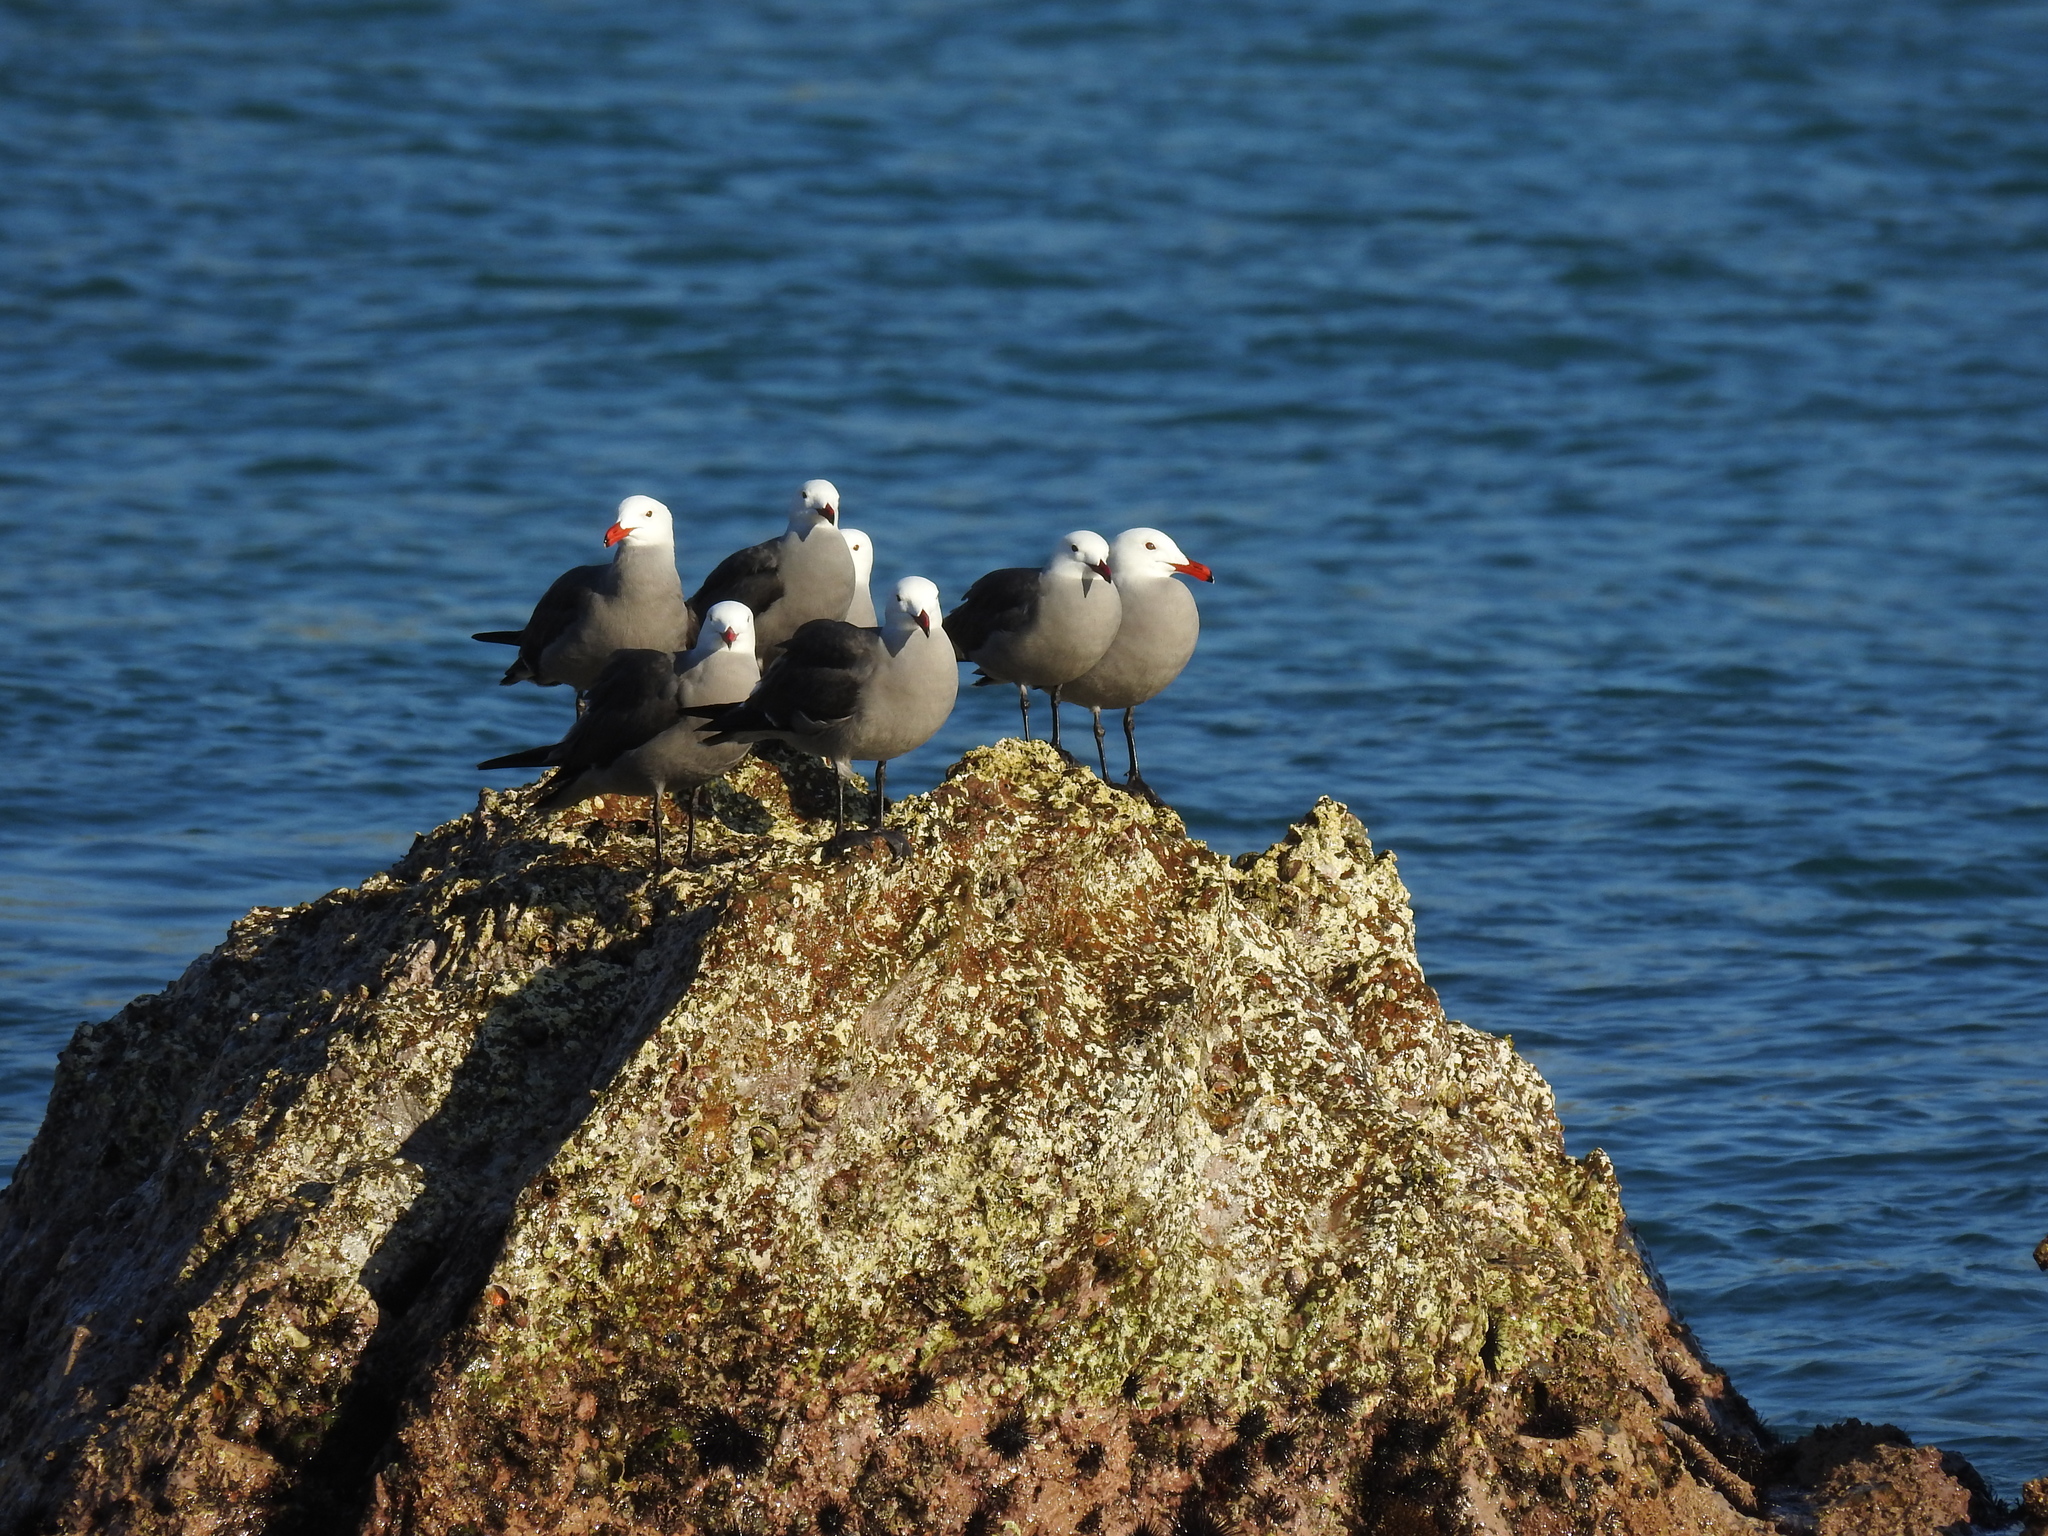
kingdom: Animalia
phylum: Chordata
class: Aves
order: Charadriiformes
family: Laridae
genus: Larus
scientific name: Larus heermanni
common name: Heermann's gull
